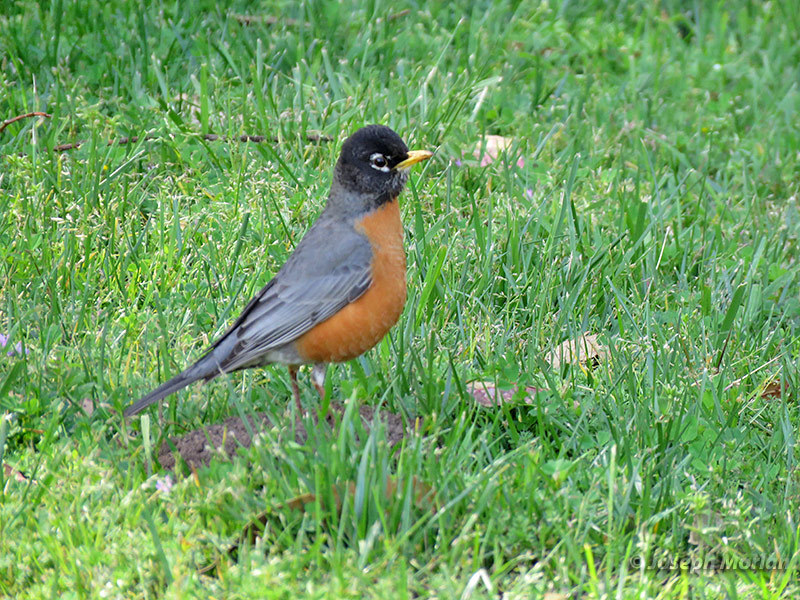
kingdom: Animalia
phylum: Chordata
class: Aves
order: Passeriformes
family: Turdidae
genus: Turdus
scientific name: Turdus migratorius
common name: American robin
